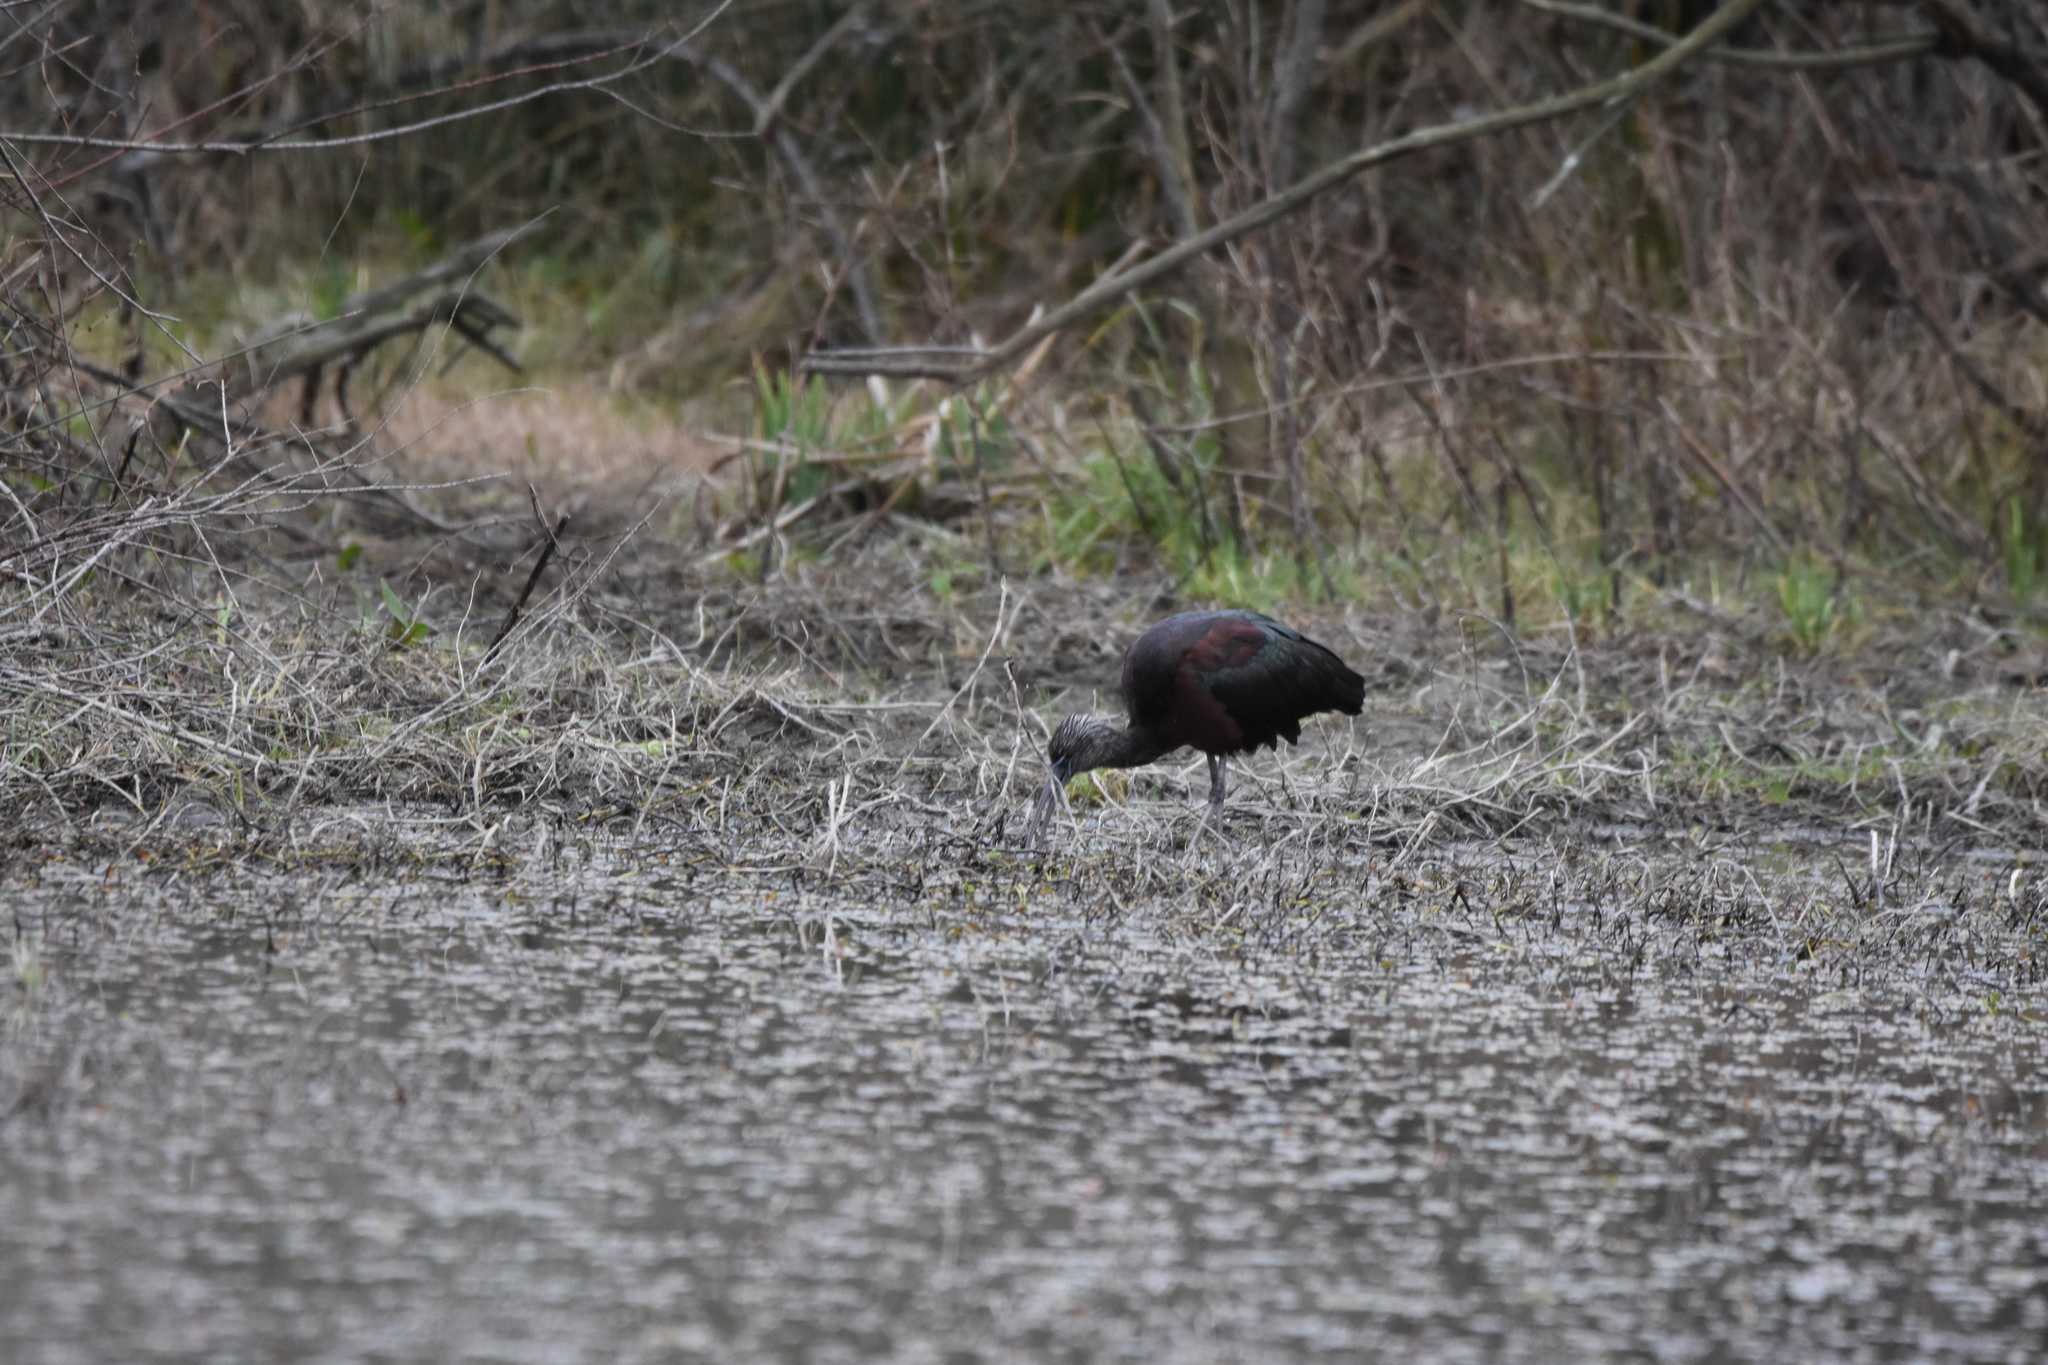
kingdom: Animalia
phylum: Chordata
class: Aves
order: Pelecaniformes
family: Threskiornithidae
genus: Plegadis
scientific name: Plegadis falcinellus
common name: Glossy ibis
